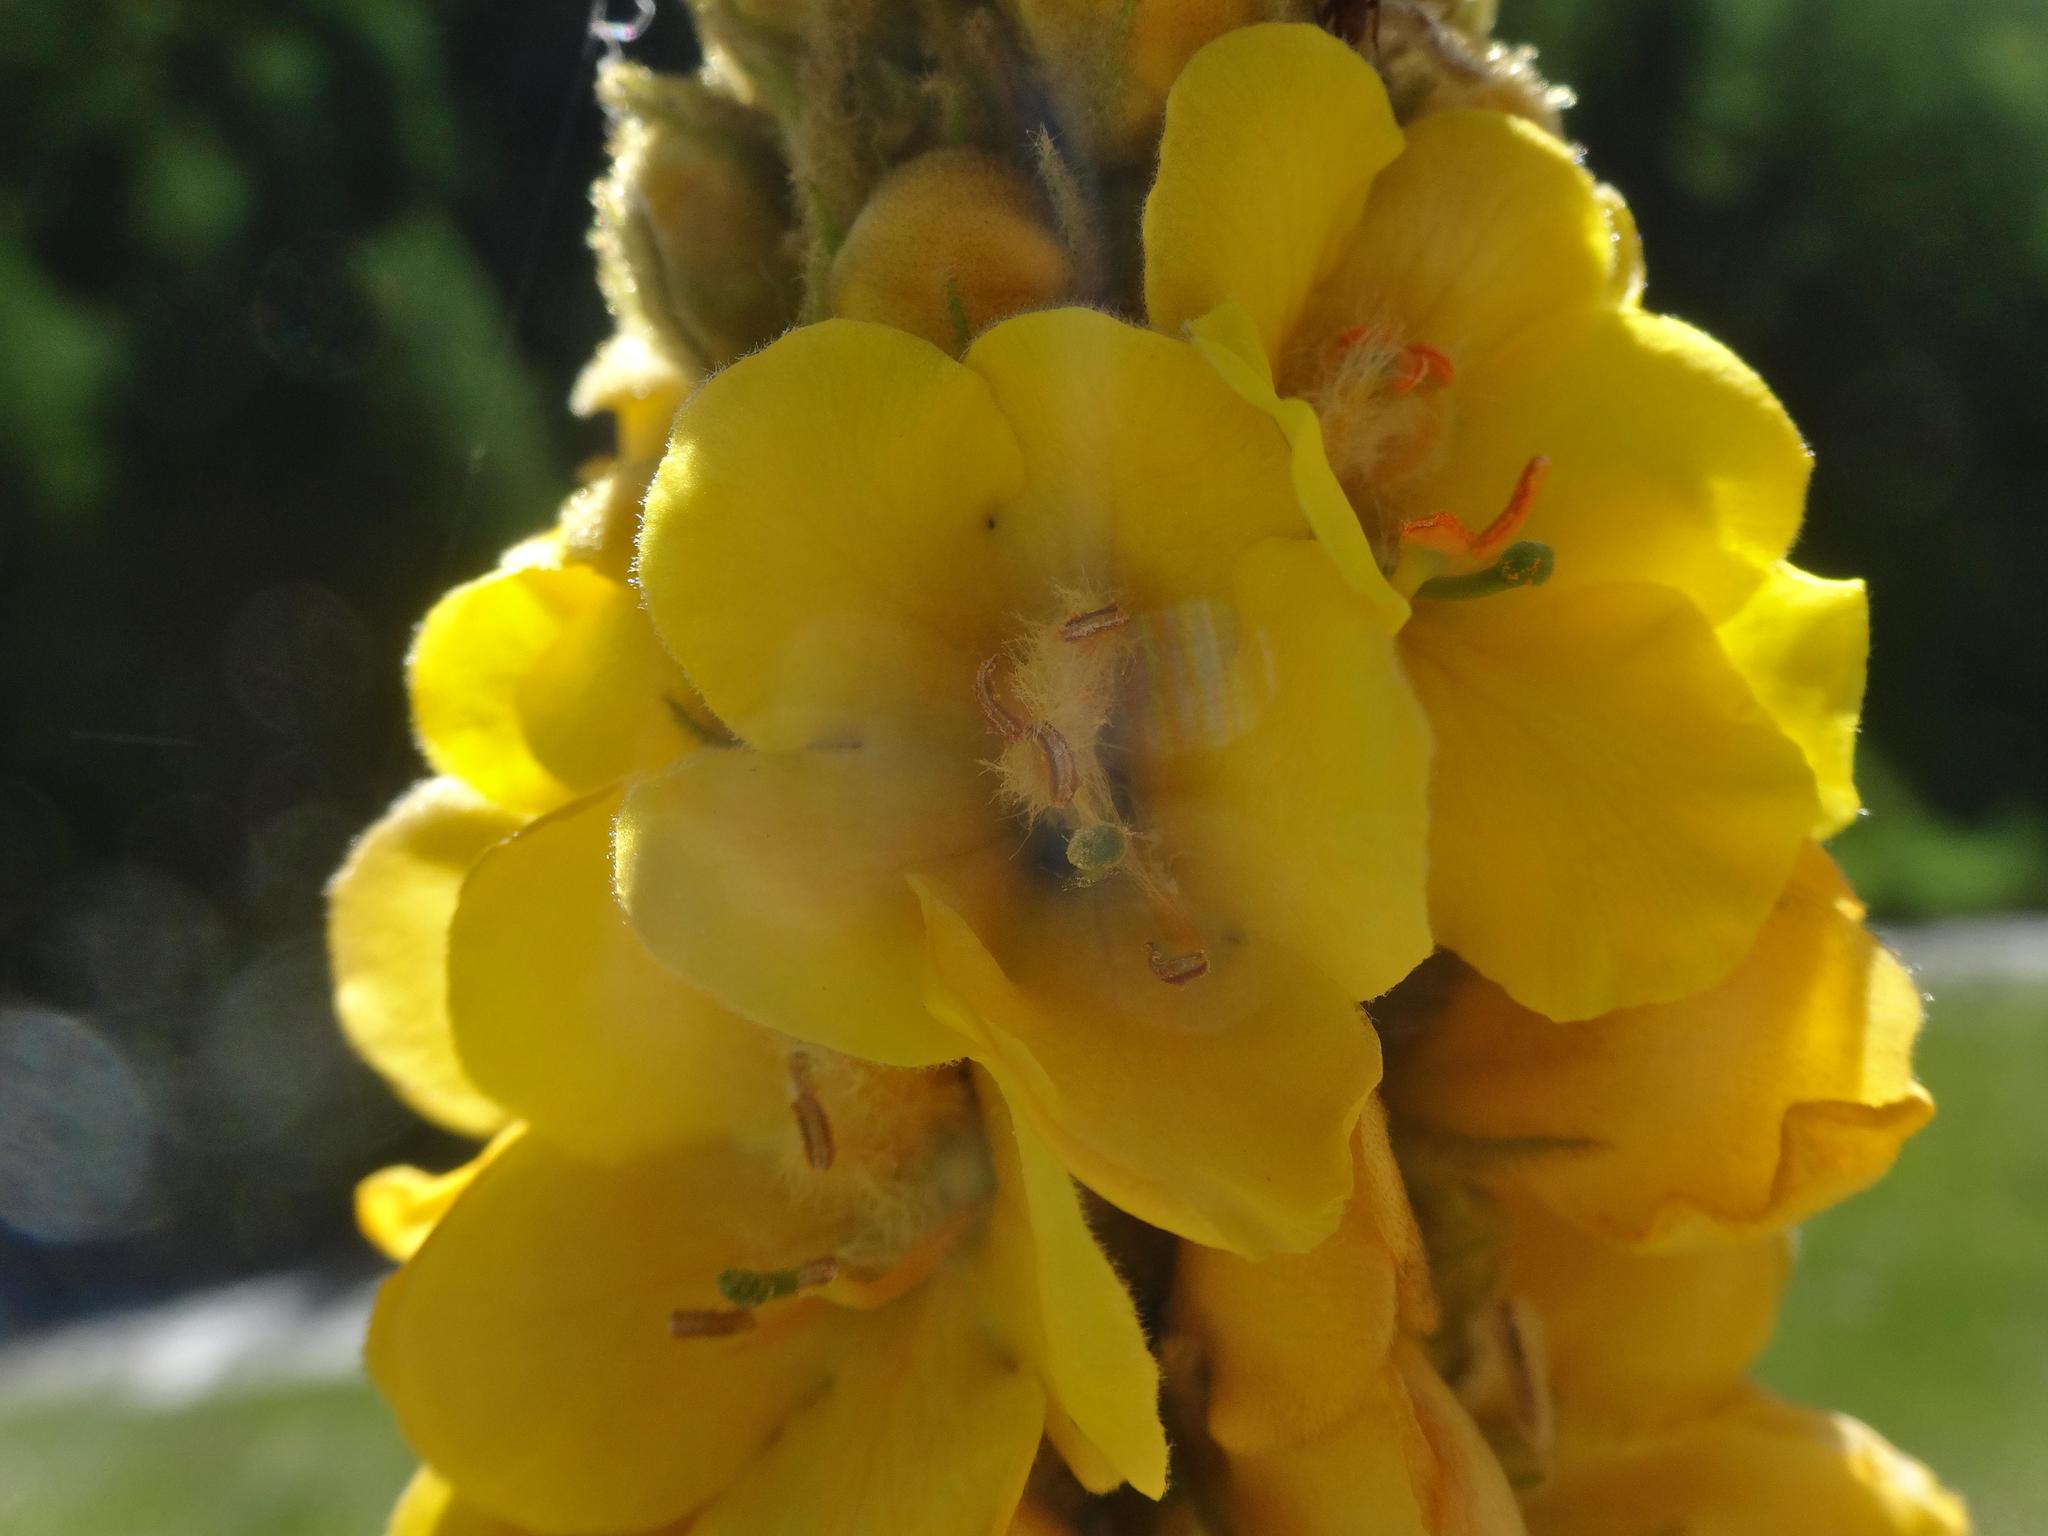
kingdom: Plantae
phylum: Tracheophyta
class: Magnoliopsida
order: Lamiales
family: Scrophulariaceae
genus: Verbascum
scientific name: Verbascum thapsus
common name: Common mullein
